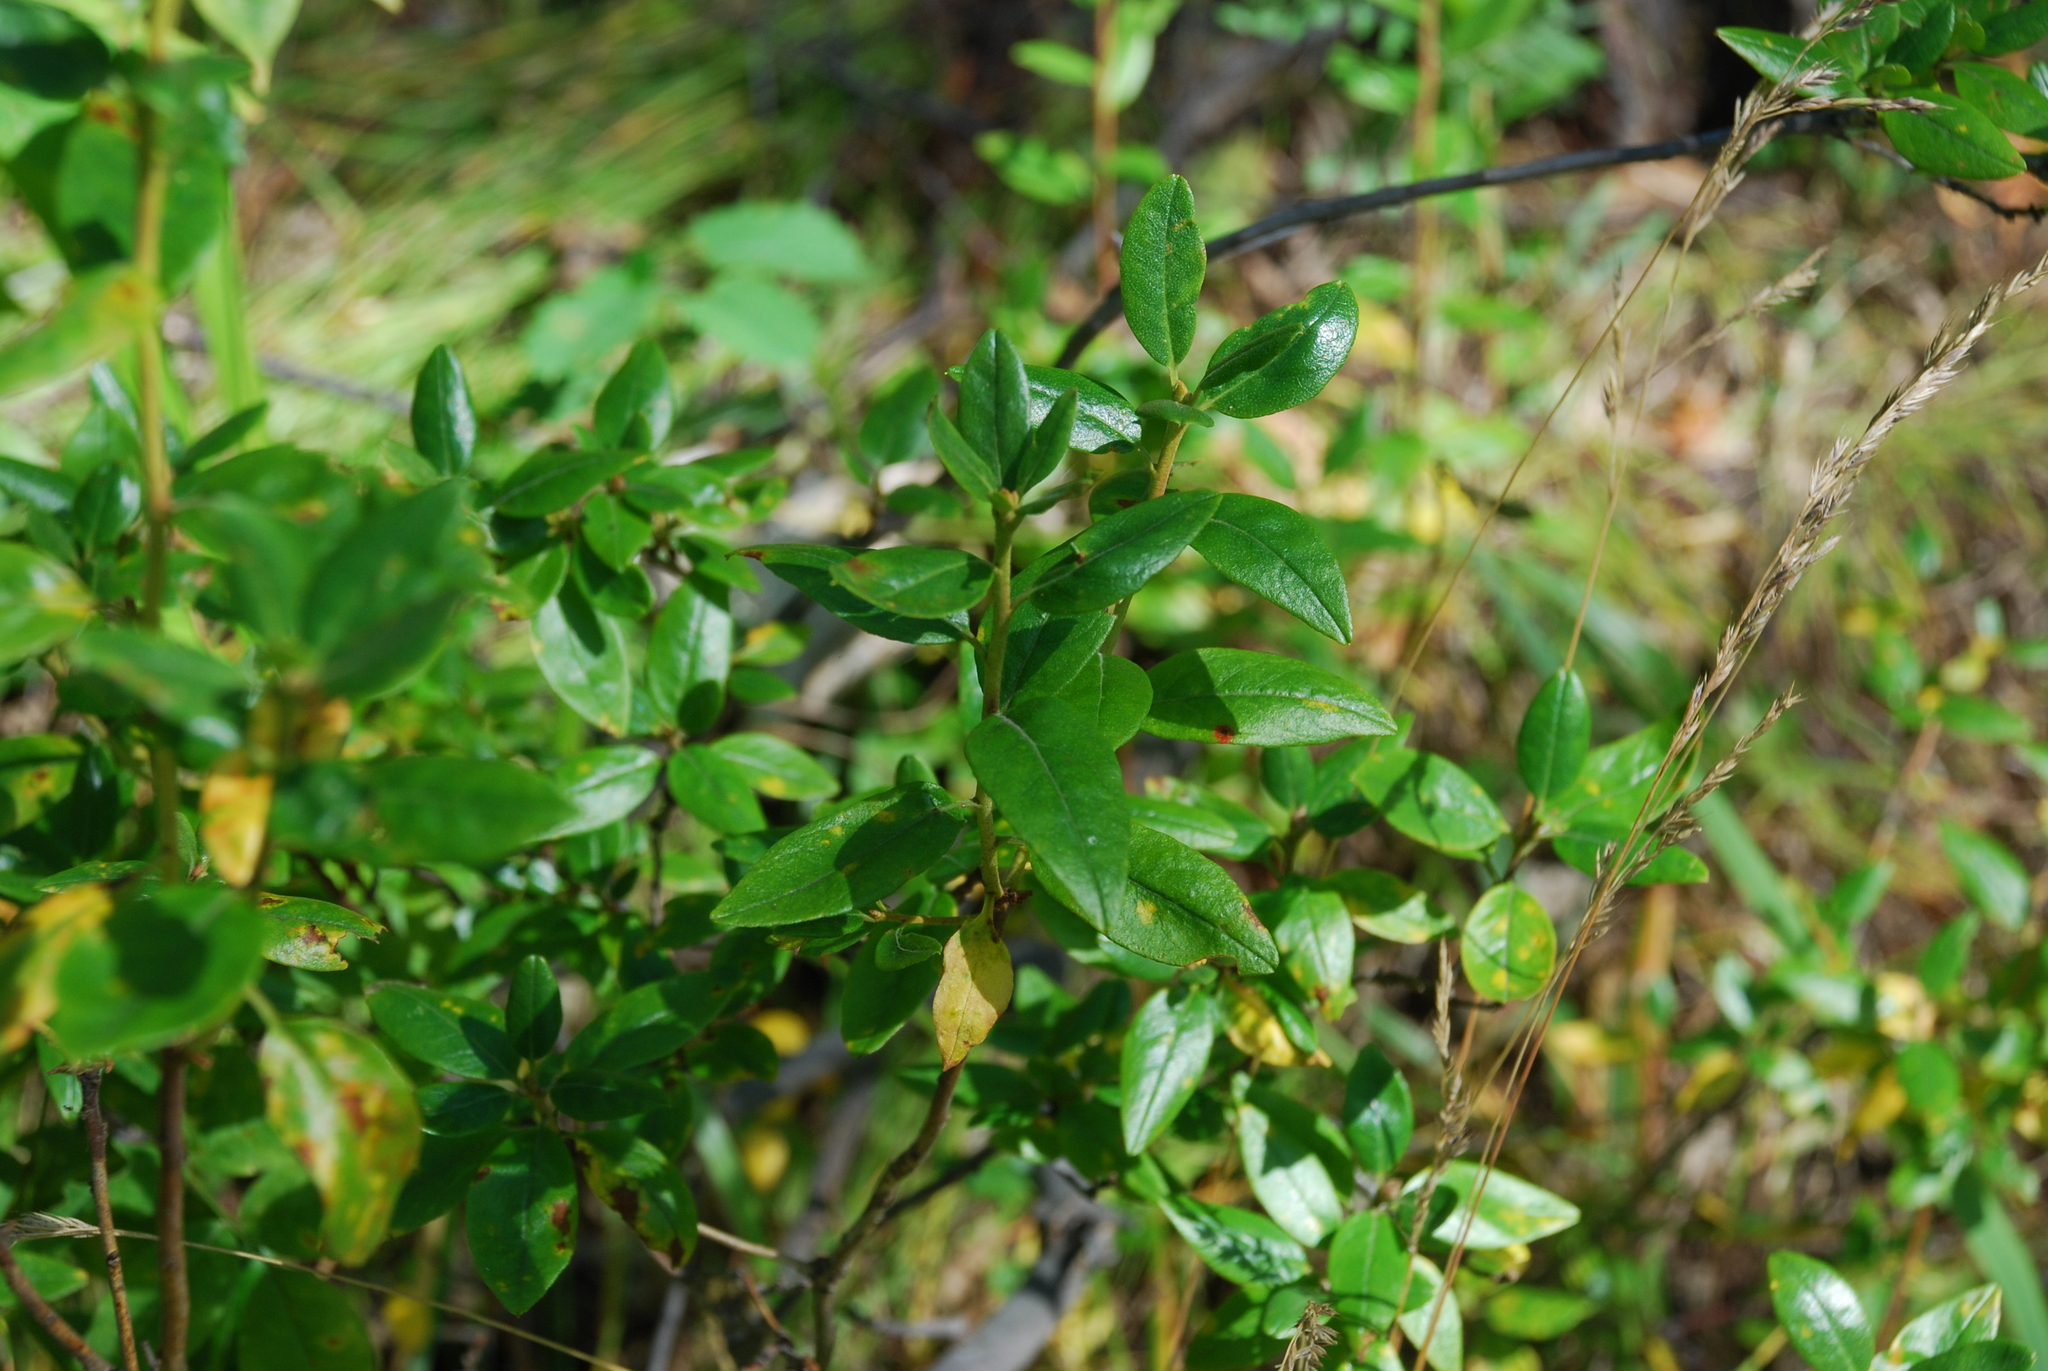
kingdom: Plantae
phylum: Tracheophyta
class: Magnoliopsida
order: Ericales
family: Ericaceae
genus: Rhododendron
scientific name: Rhododendron dauricum
